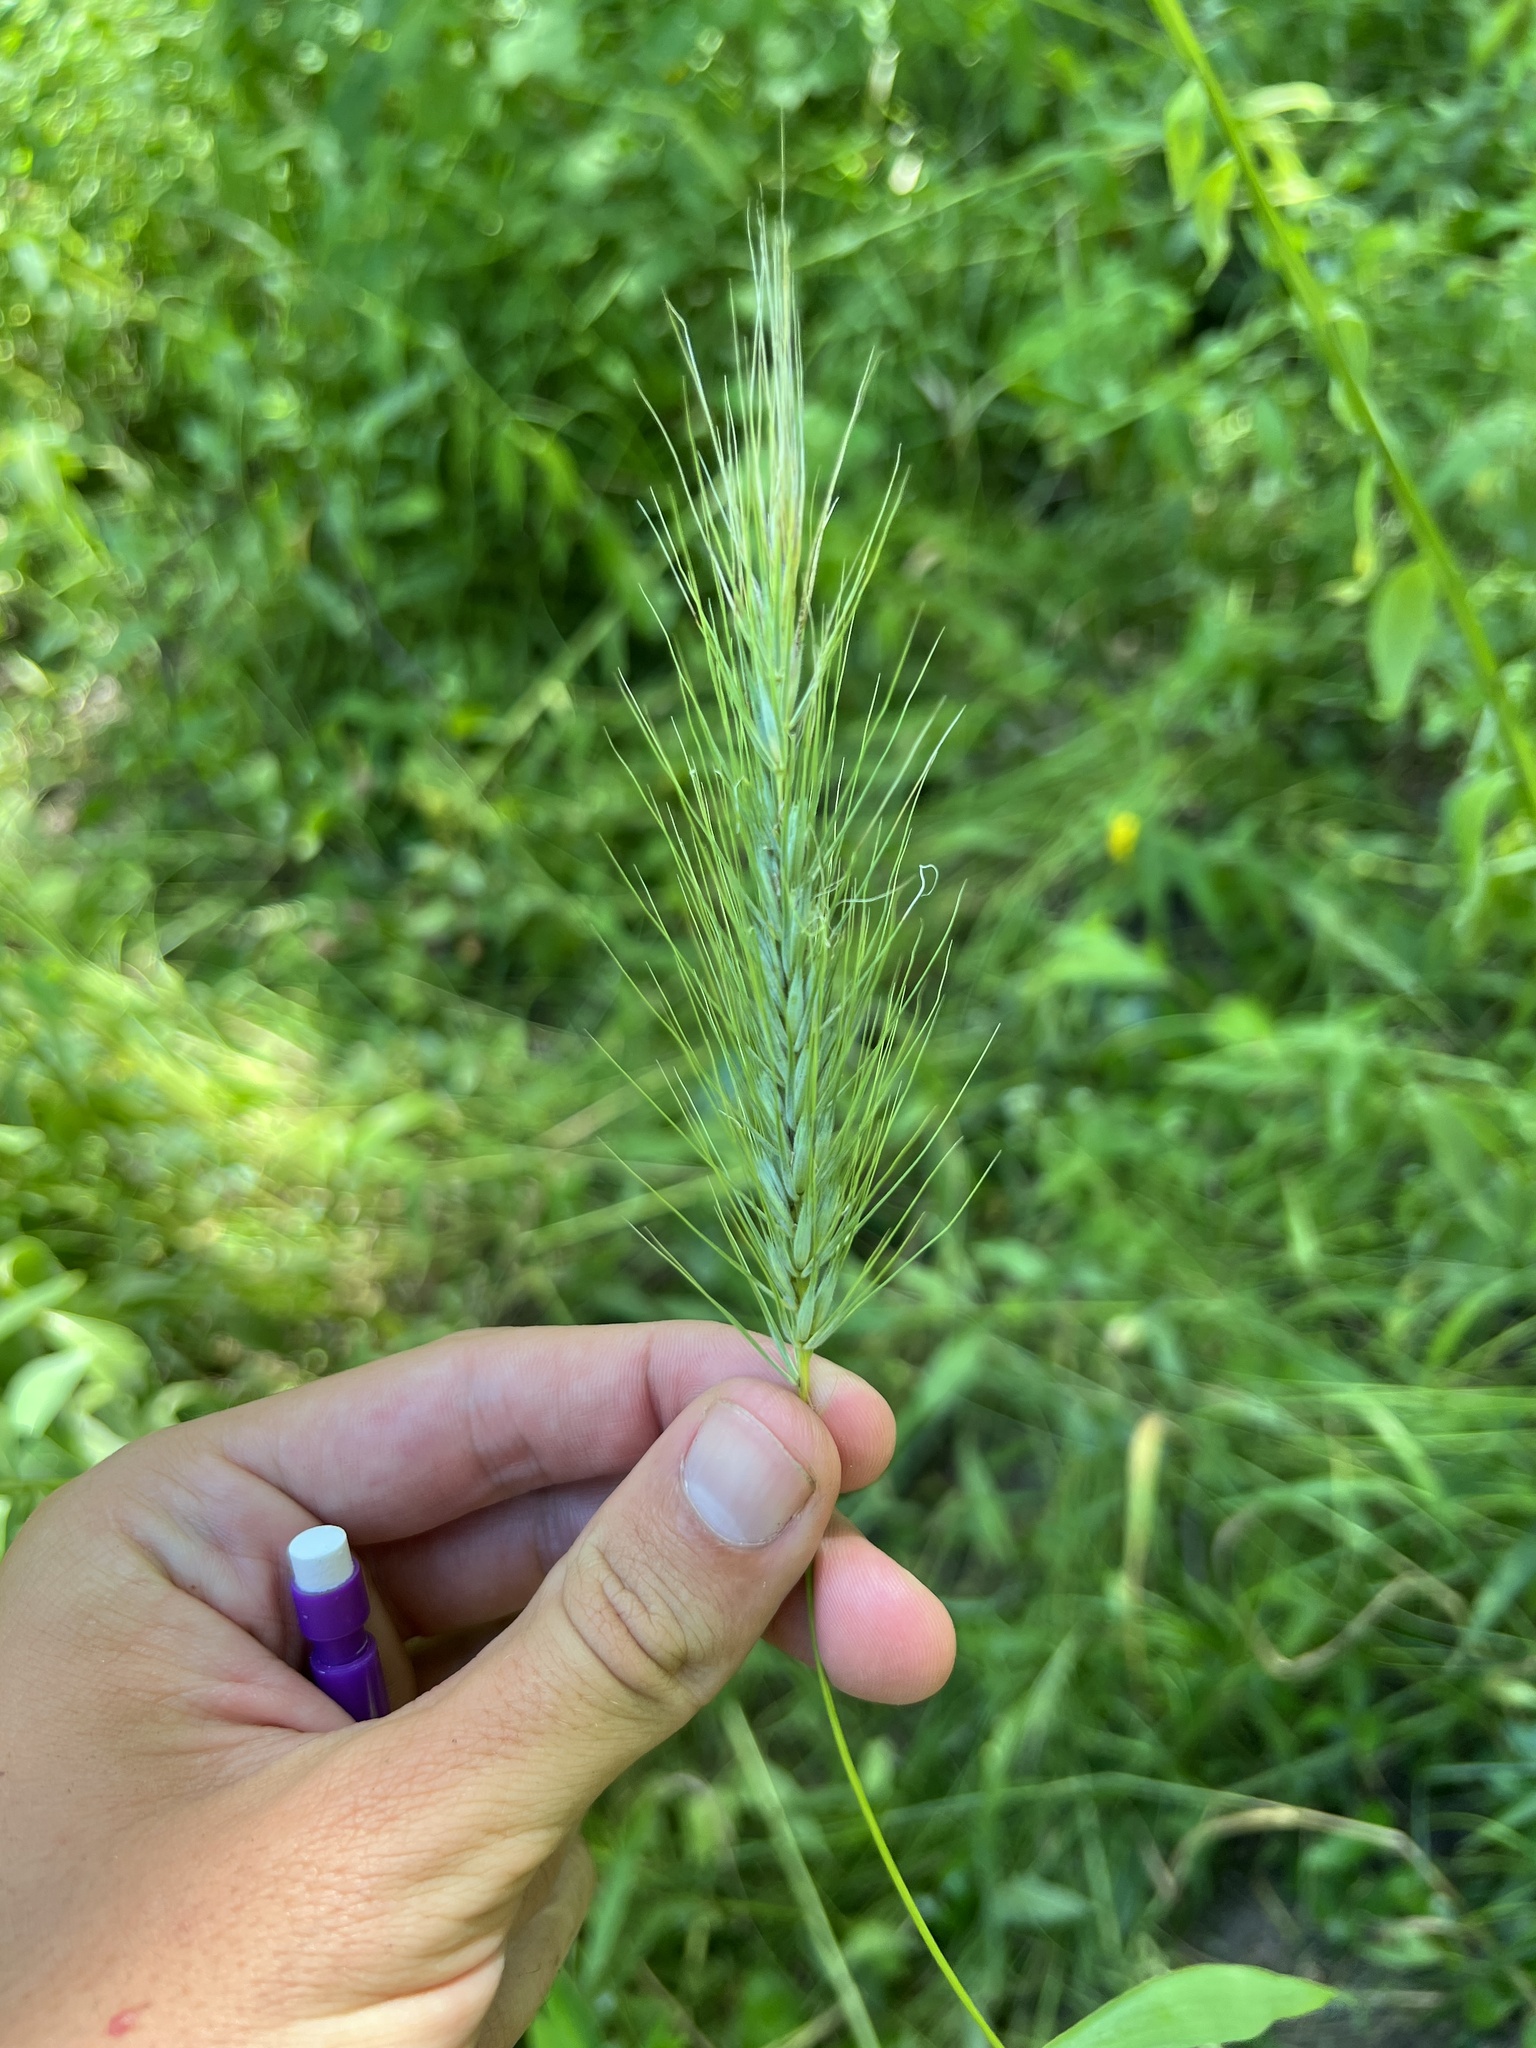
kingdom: Plantae
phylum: Tracheophyta
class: Liliopsida
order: Poales
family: Poaceae
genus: Elymus
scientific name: Elymus virginicus
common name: Common eastern wildrye
